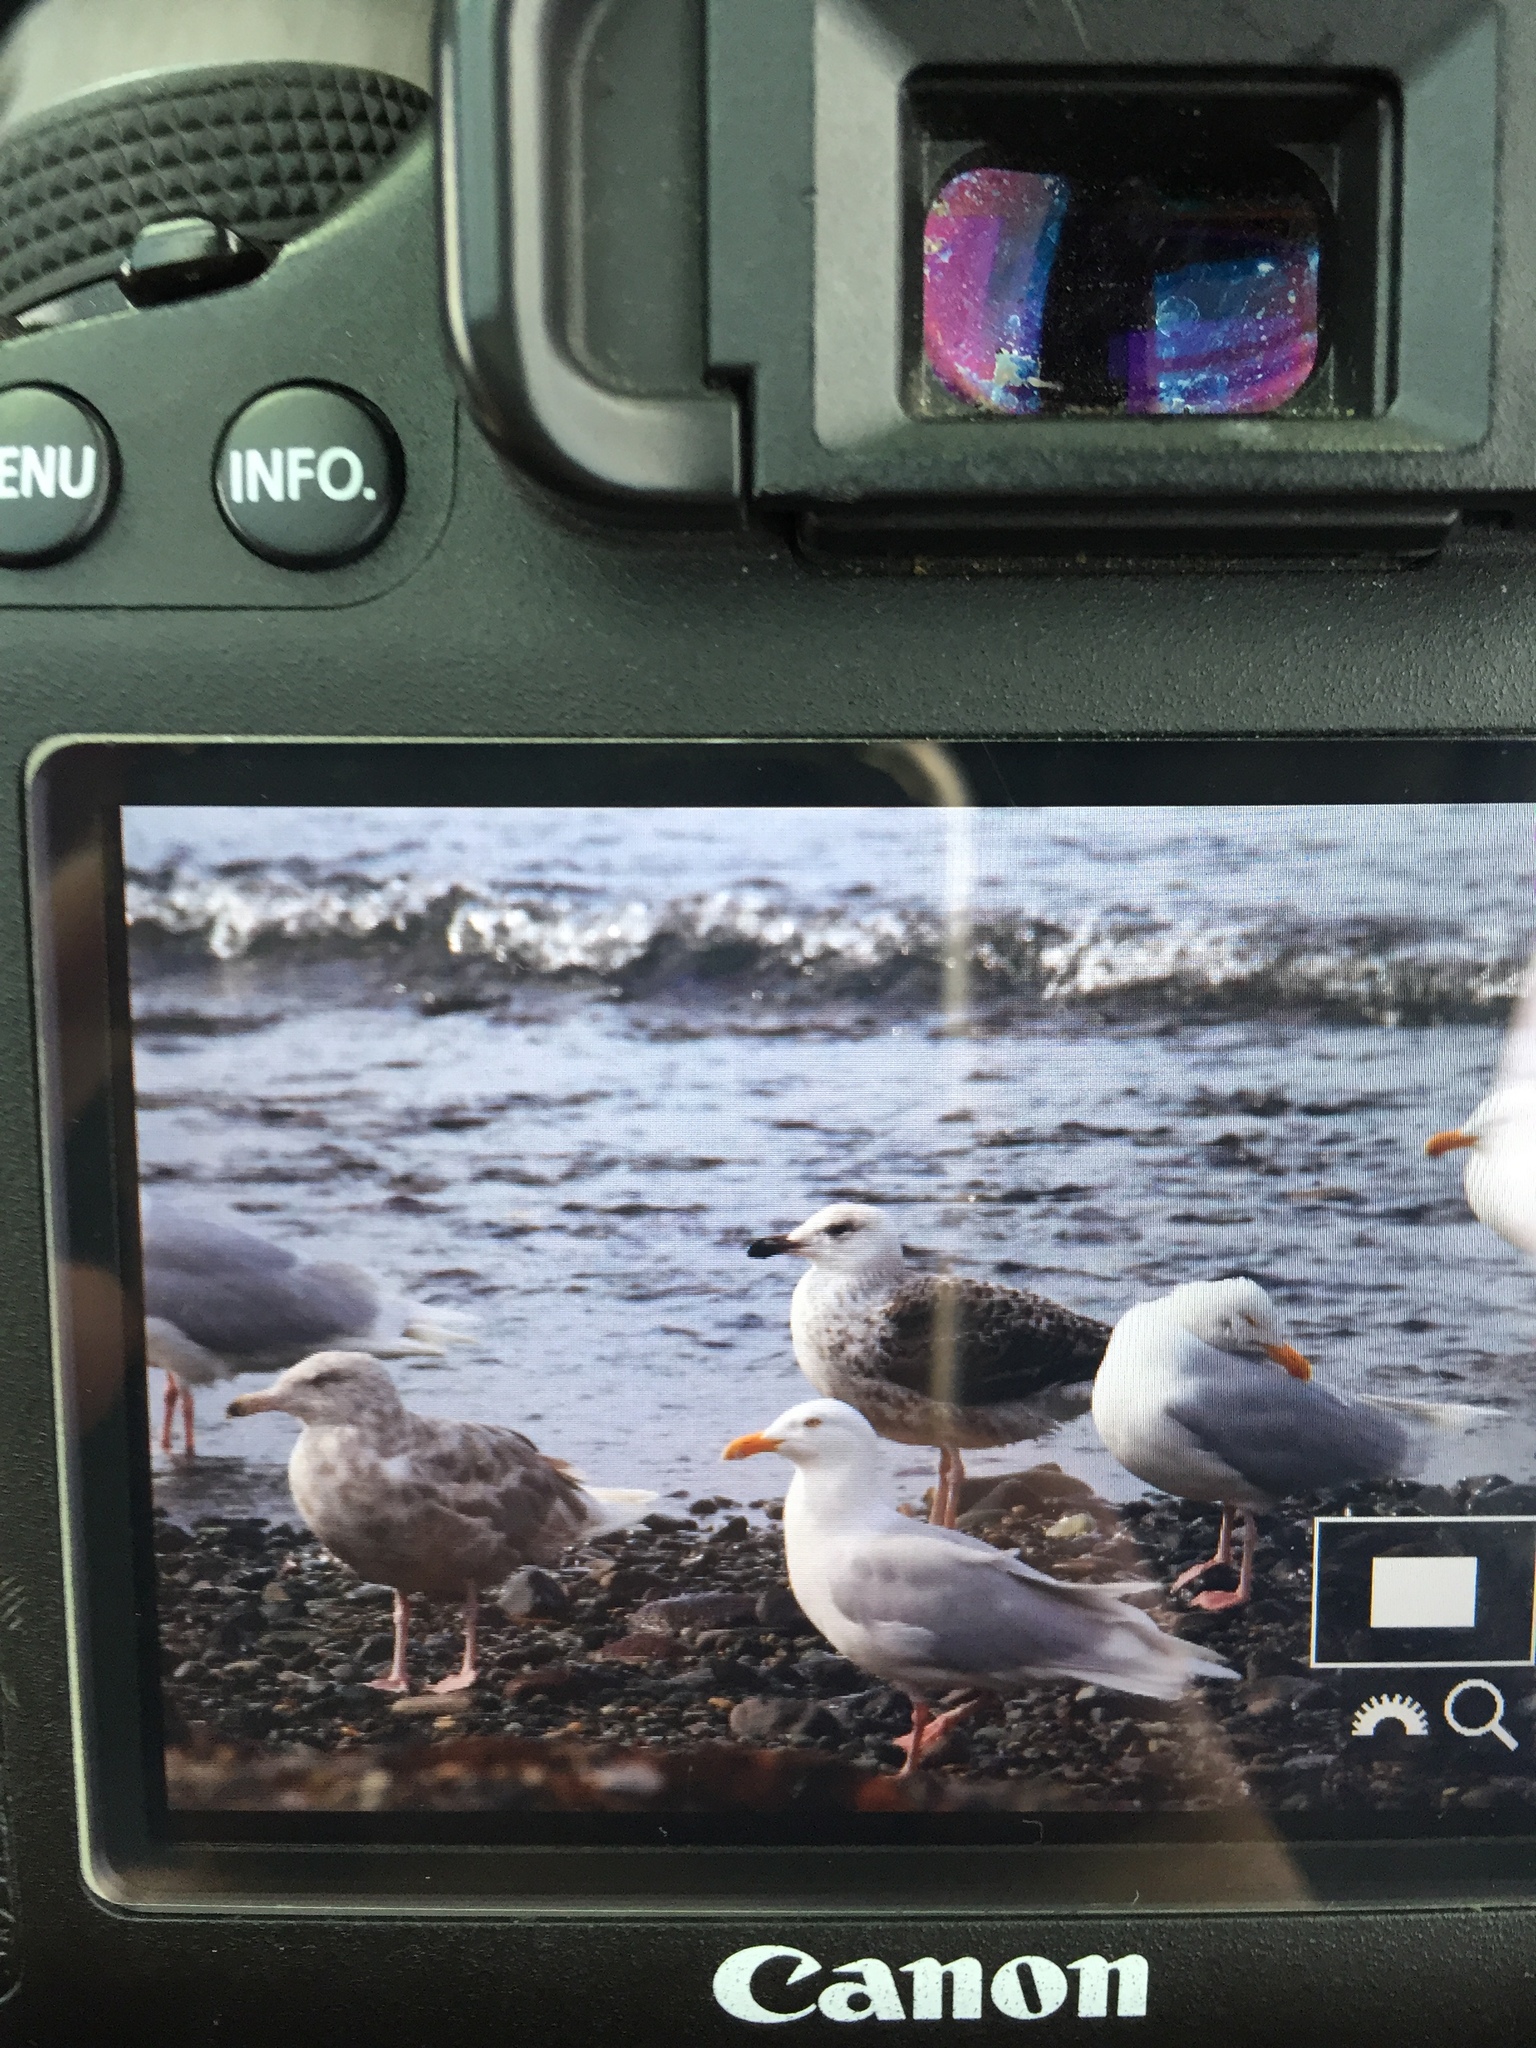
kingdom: Animalia
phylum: Chordata
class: Aves
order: Charadriiformes
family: Laridae
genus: Larus
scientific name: Larus marinus
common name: Great black-backed gull
